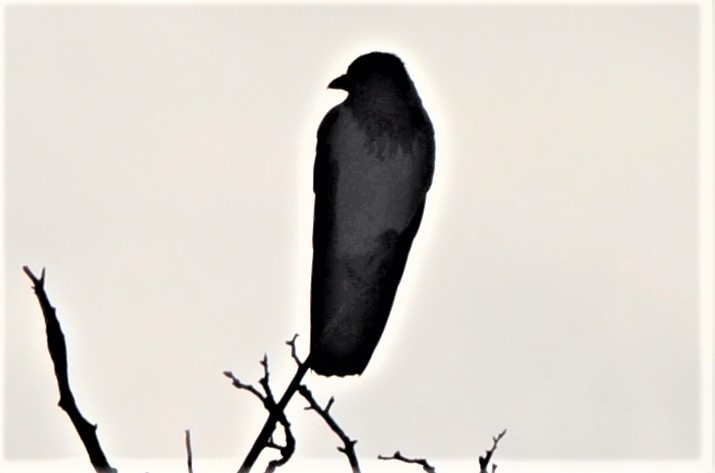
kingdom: Animalia
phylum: Chordata
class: Aves
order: Passeriformes
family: Corvidae
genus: Corvus
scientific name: Corvus cornix
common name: Hooded crow
